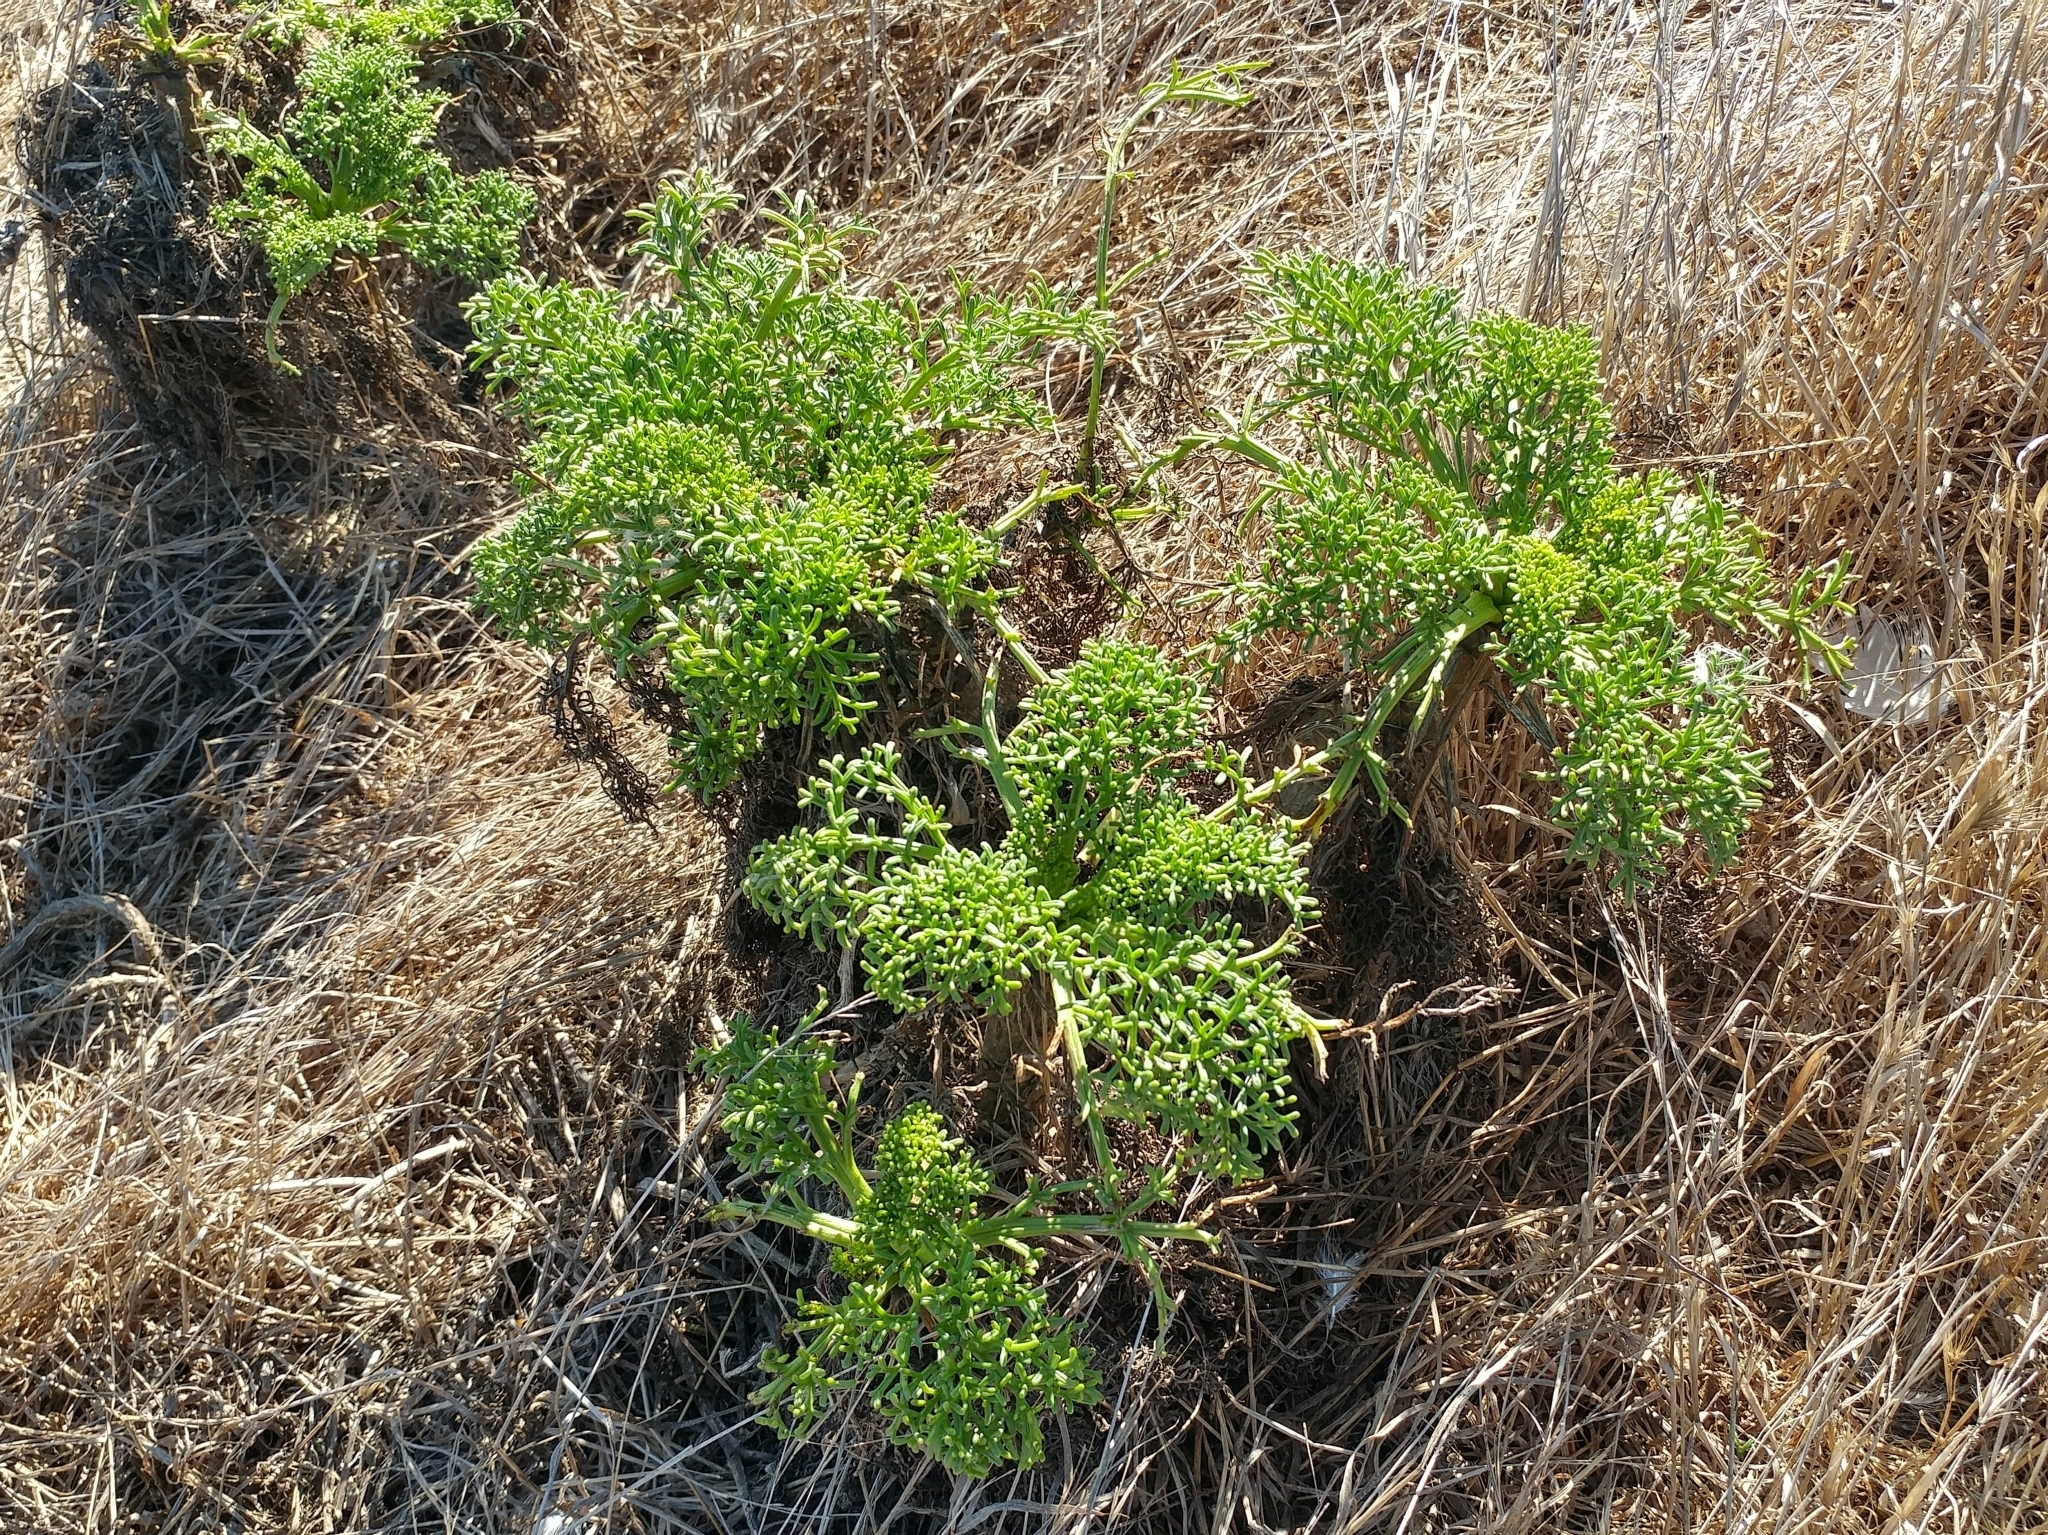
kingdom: Plantae
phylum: Tracheophyta
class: Magnoliopsida
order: Asterales
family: Asteraceae
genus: Coreopsis
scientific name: Coreopsis gigantea
